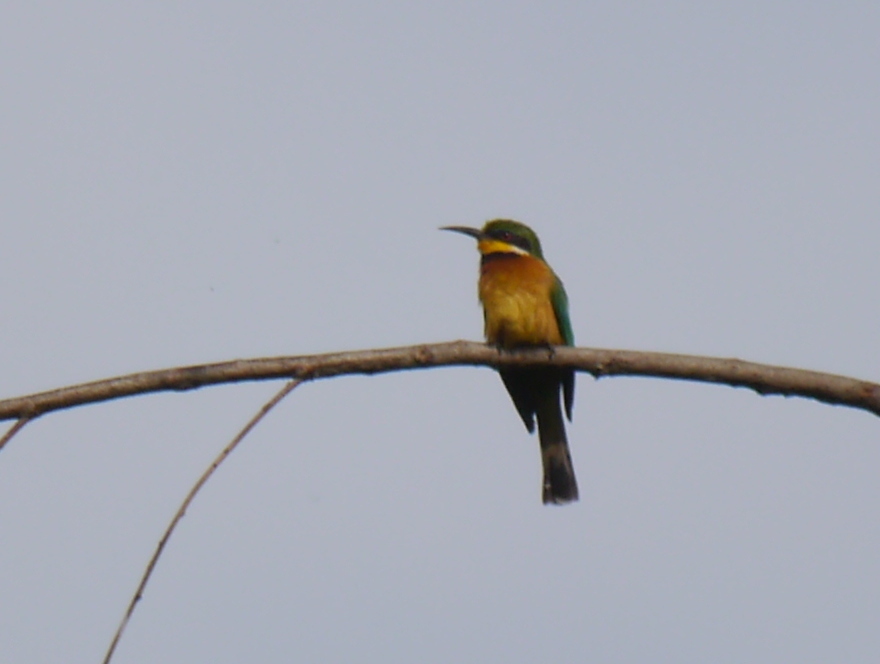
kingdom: Animalia
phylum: Chordata
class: Aves
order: Coraciiformes
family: Meropidae
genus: Merops
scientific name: Merops oreobates
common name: Cinnamon-chested bee-eater
